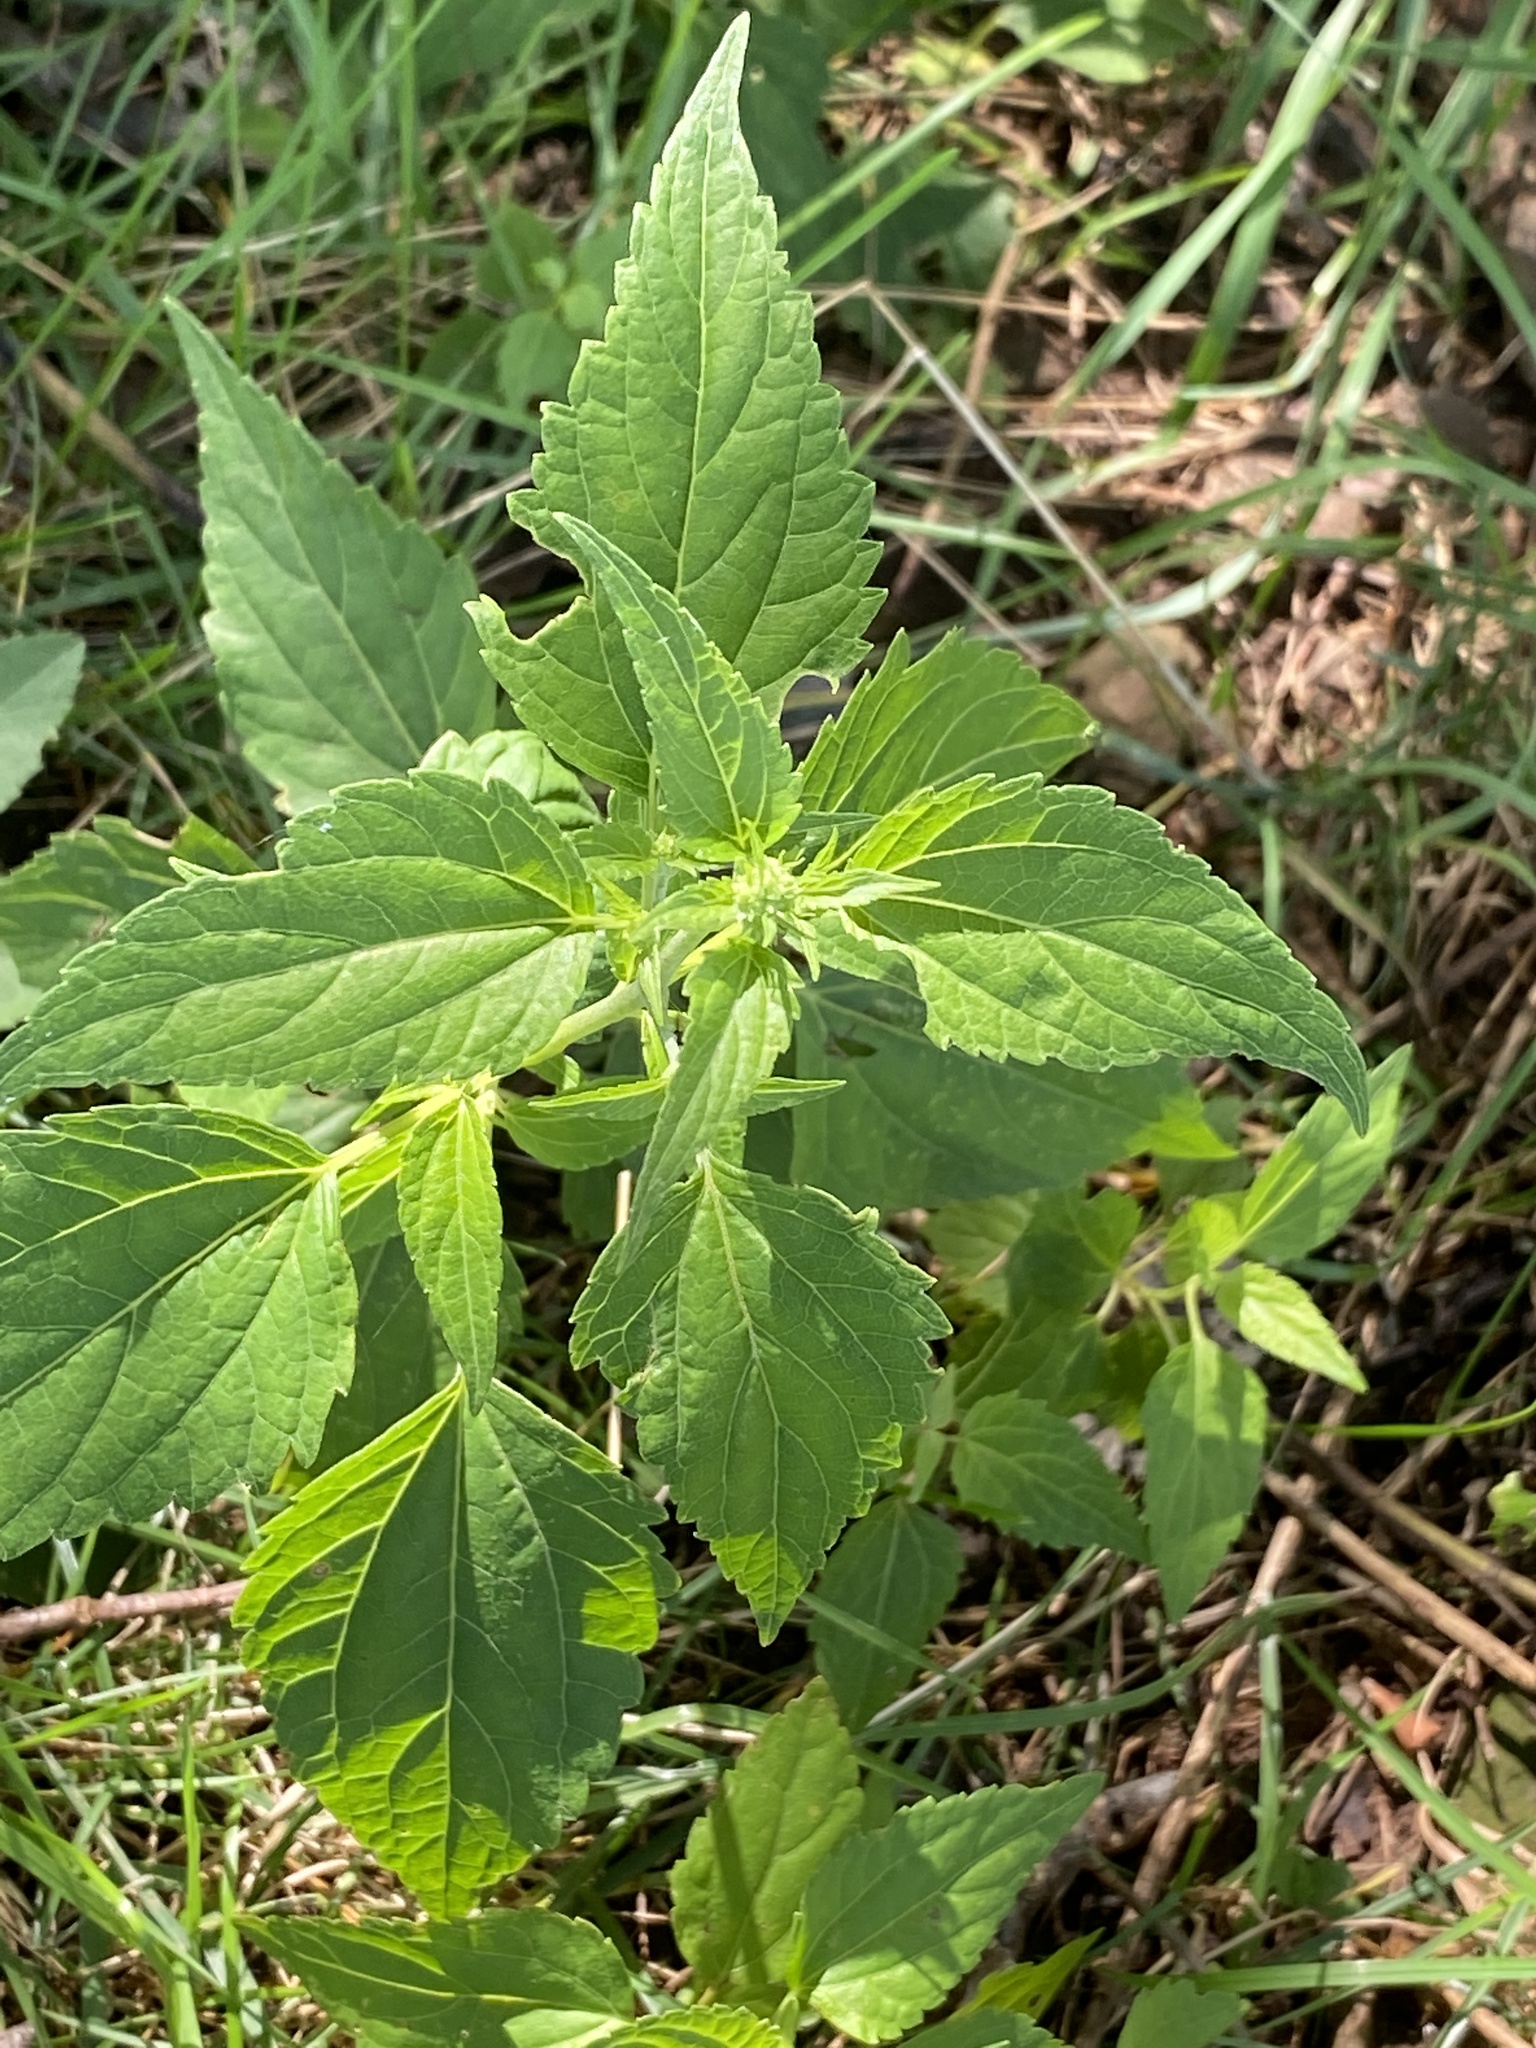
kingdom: Plantae
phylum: Tracheophyta
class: Magnoliopsida
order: Asterales
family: Asteraceae
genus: Ageratina
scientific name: Ageratina altissima
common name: White snakeroot
